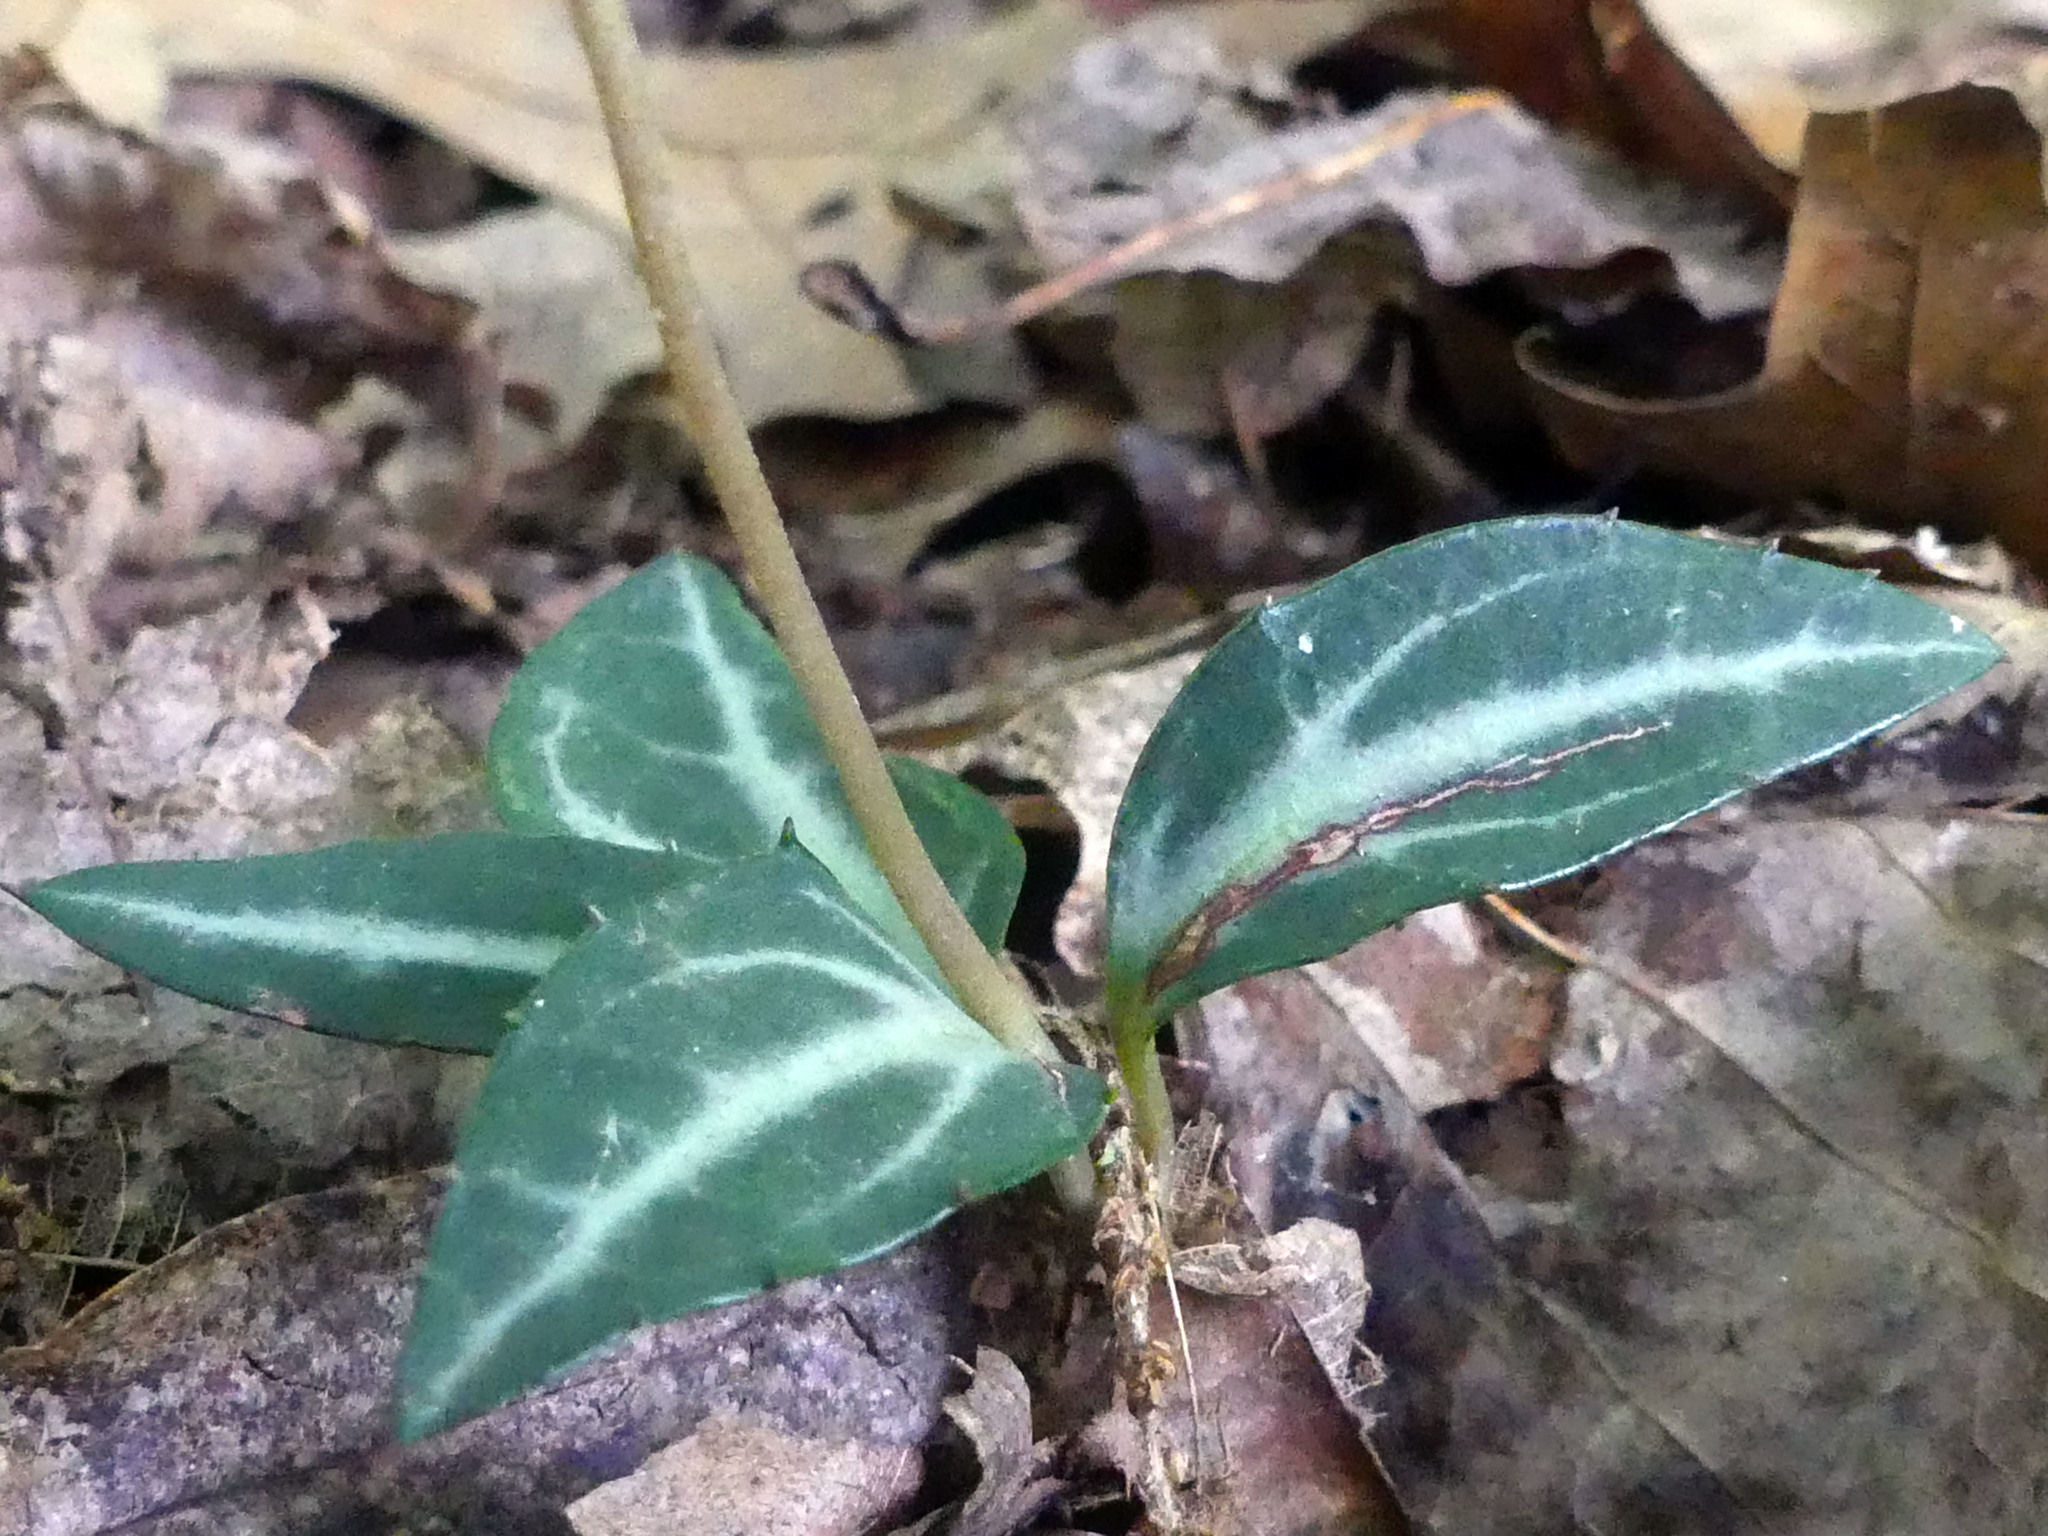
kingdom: Plantae
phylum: Tracheophyta
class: Magnoliopsida
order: Ericales
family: Ericaceae
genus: Chimaphila
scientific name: Chimaphila maculata
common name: Spotted pipsissewa
